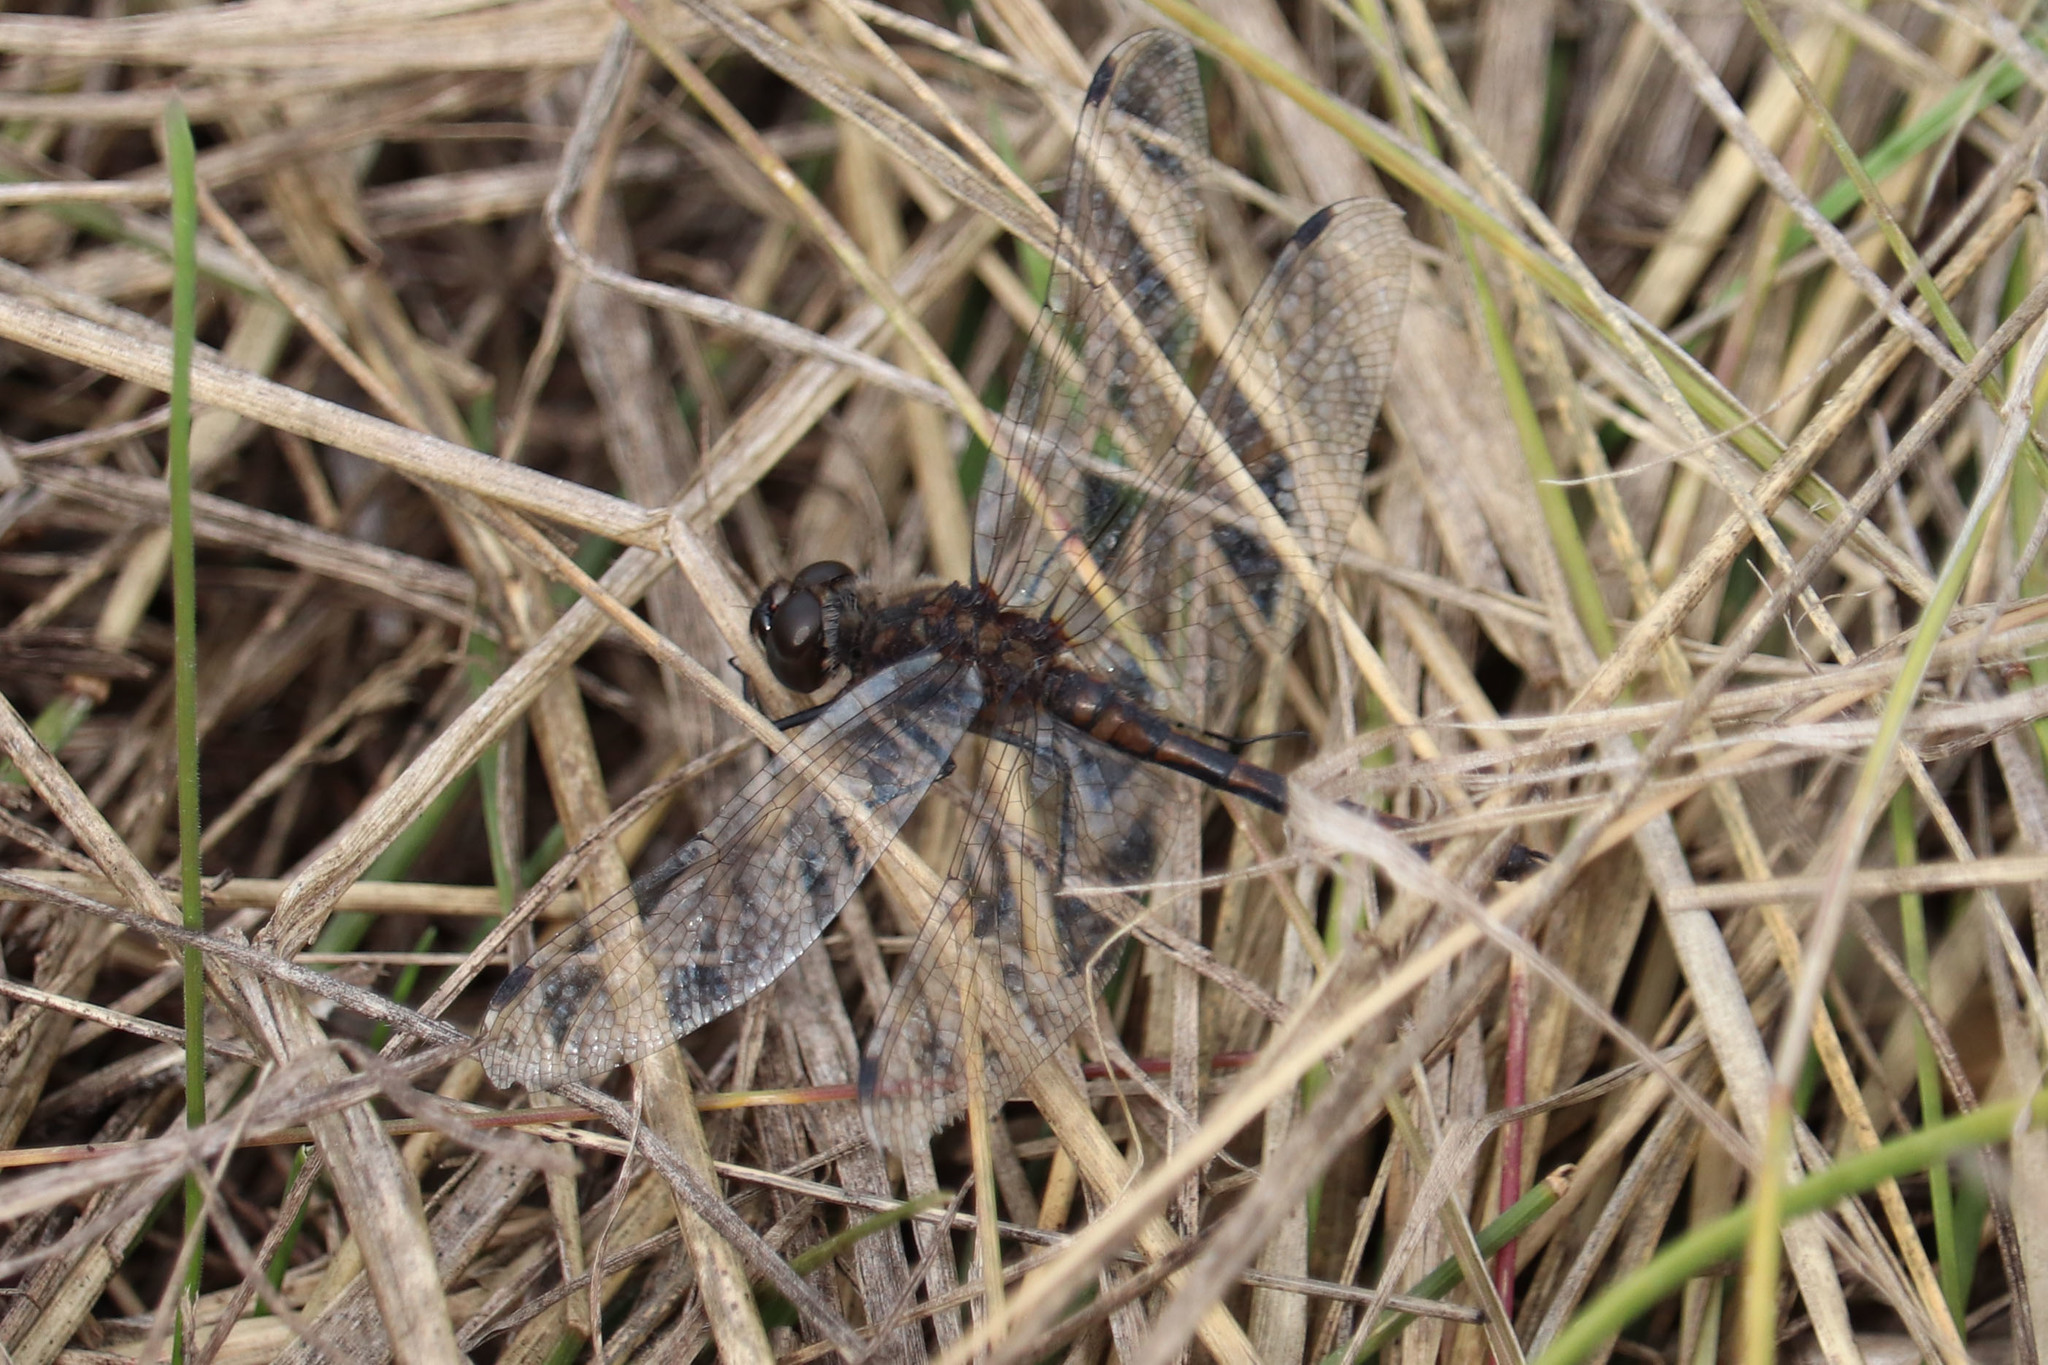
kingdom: Animalia
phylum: Arthropoda
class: Insecta
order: Odonata
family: Libellulidae
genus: Sympetrum
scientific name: Sympetrum danae
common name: Black darter
